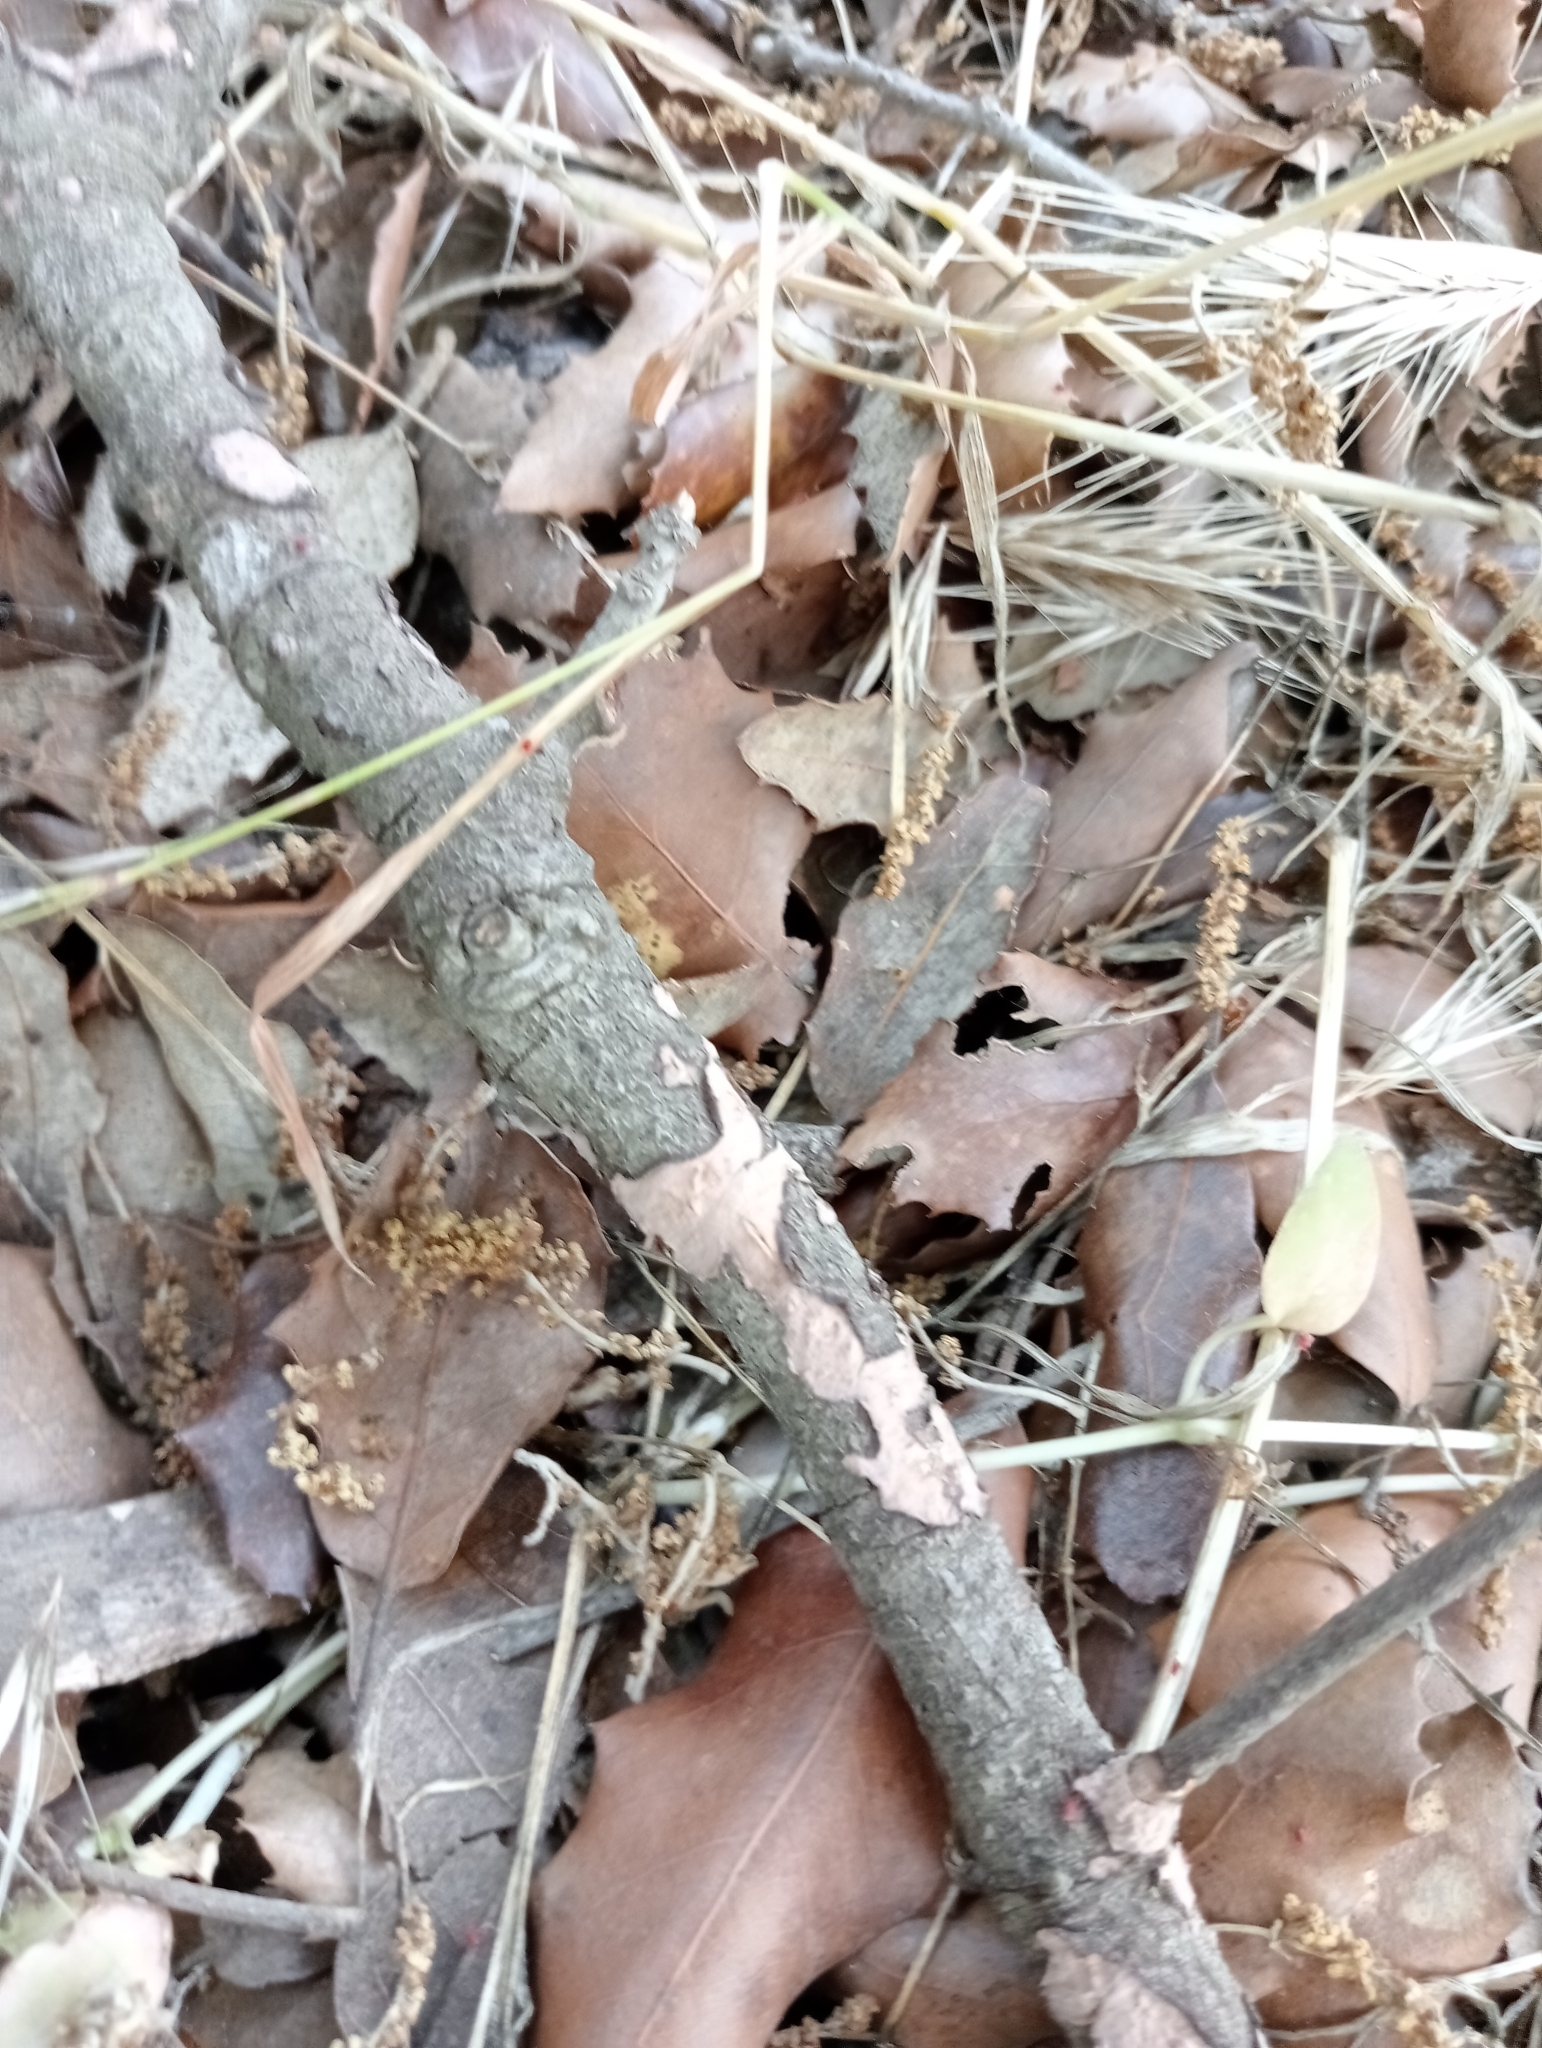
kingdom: Fungi
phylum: Basidiomycota
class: Agaricomycetes
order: Russulales
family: Peniophoraceae
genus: Peniophora
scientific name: Peniophora quercina
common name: Oak crust
